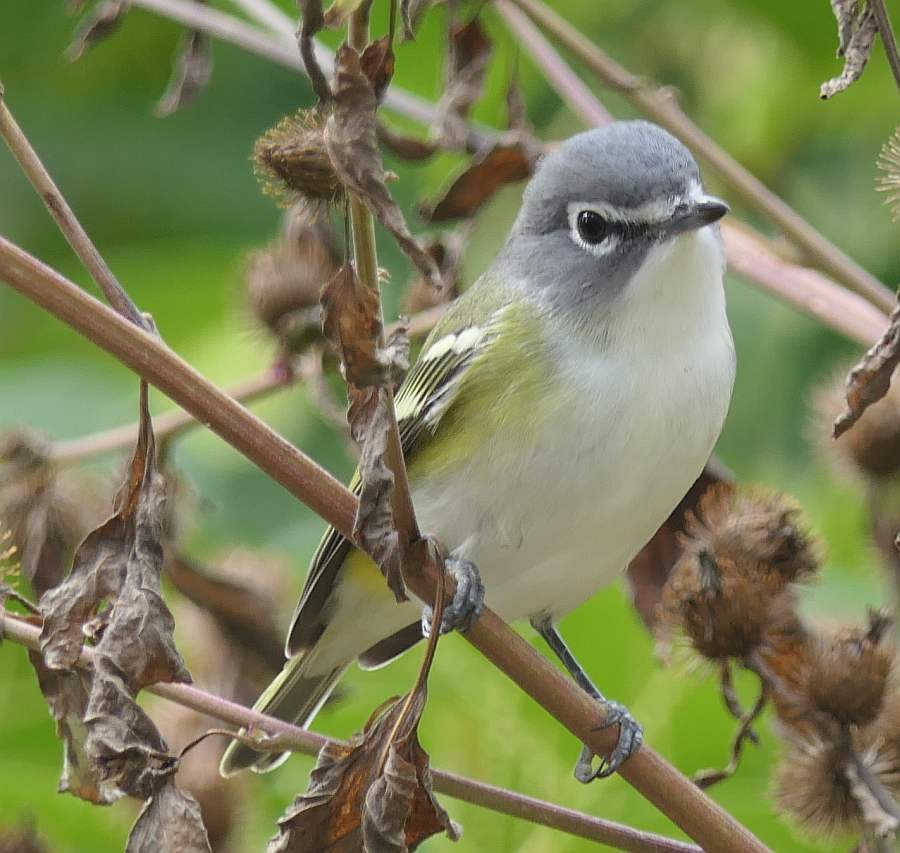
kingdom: Animalia
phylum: Chordata
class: Aves
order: Passeriformes
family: Vireonidae
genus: Vireo
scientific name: Vireo solitarius
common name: Blue-headed vireo
